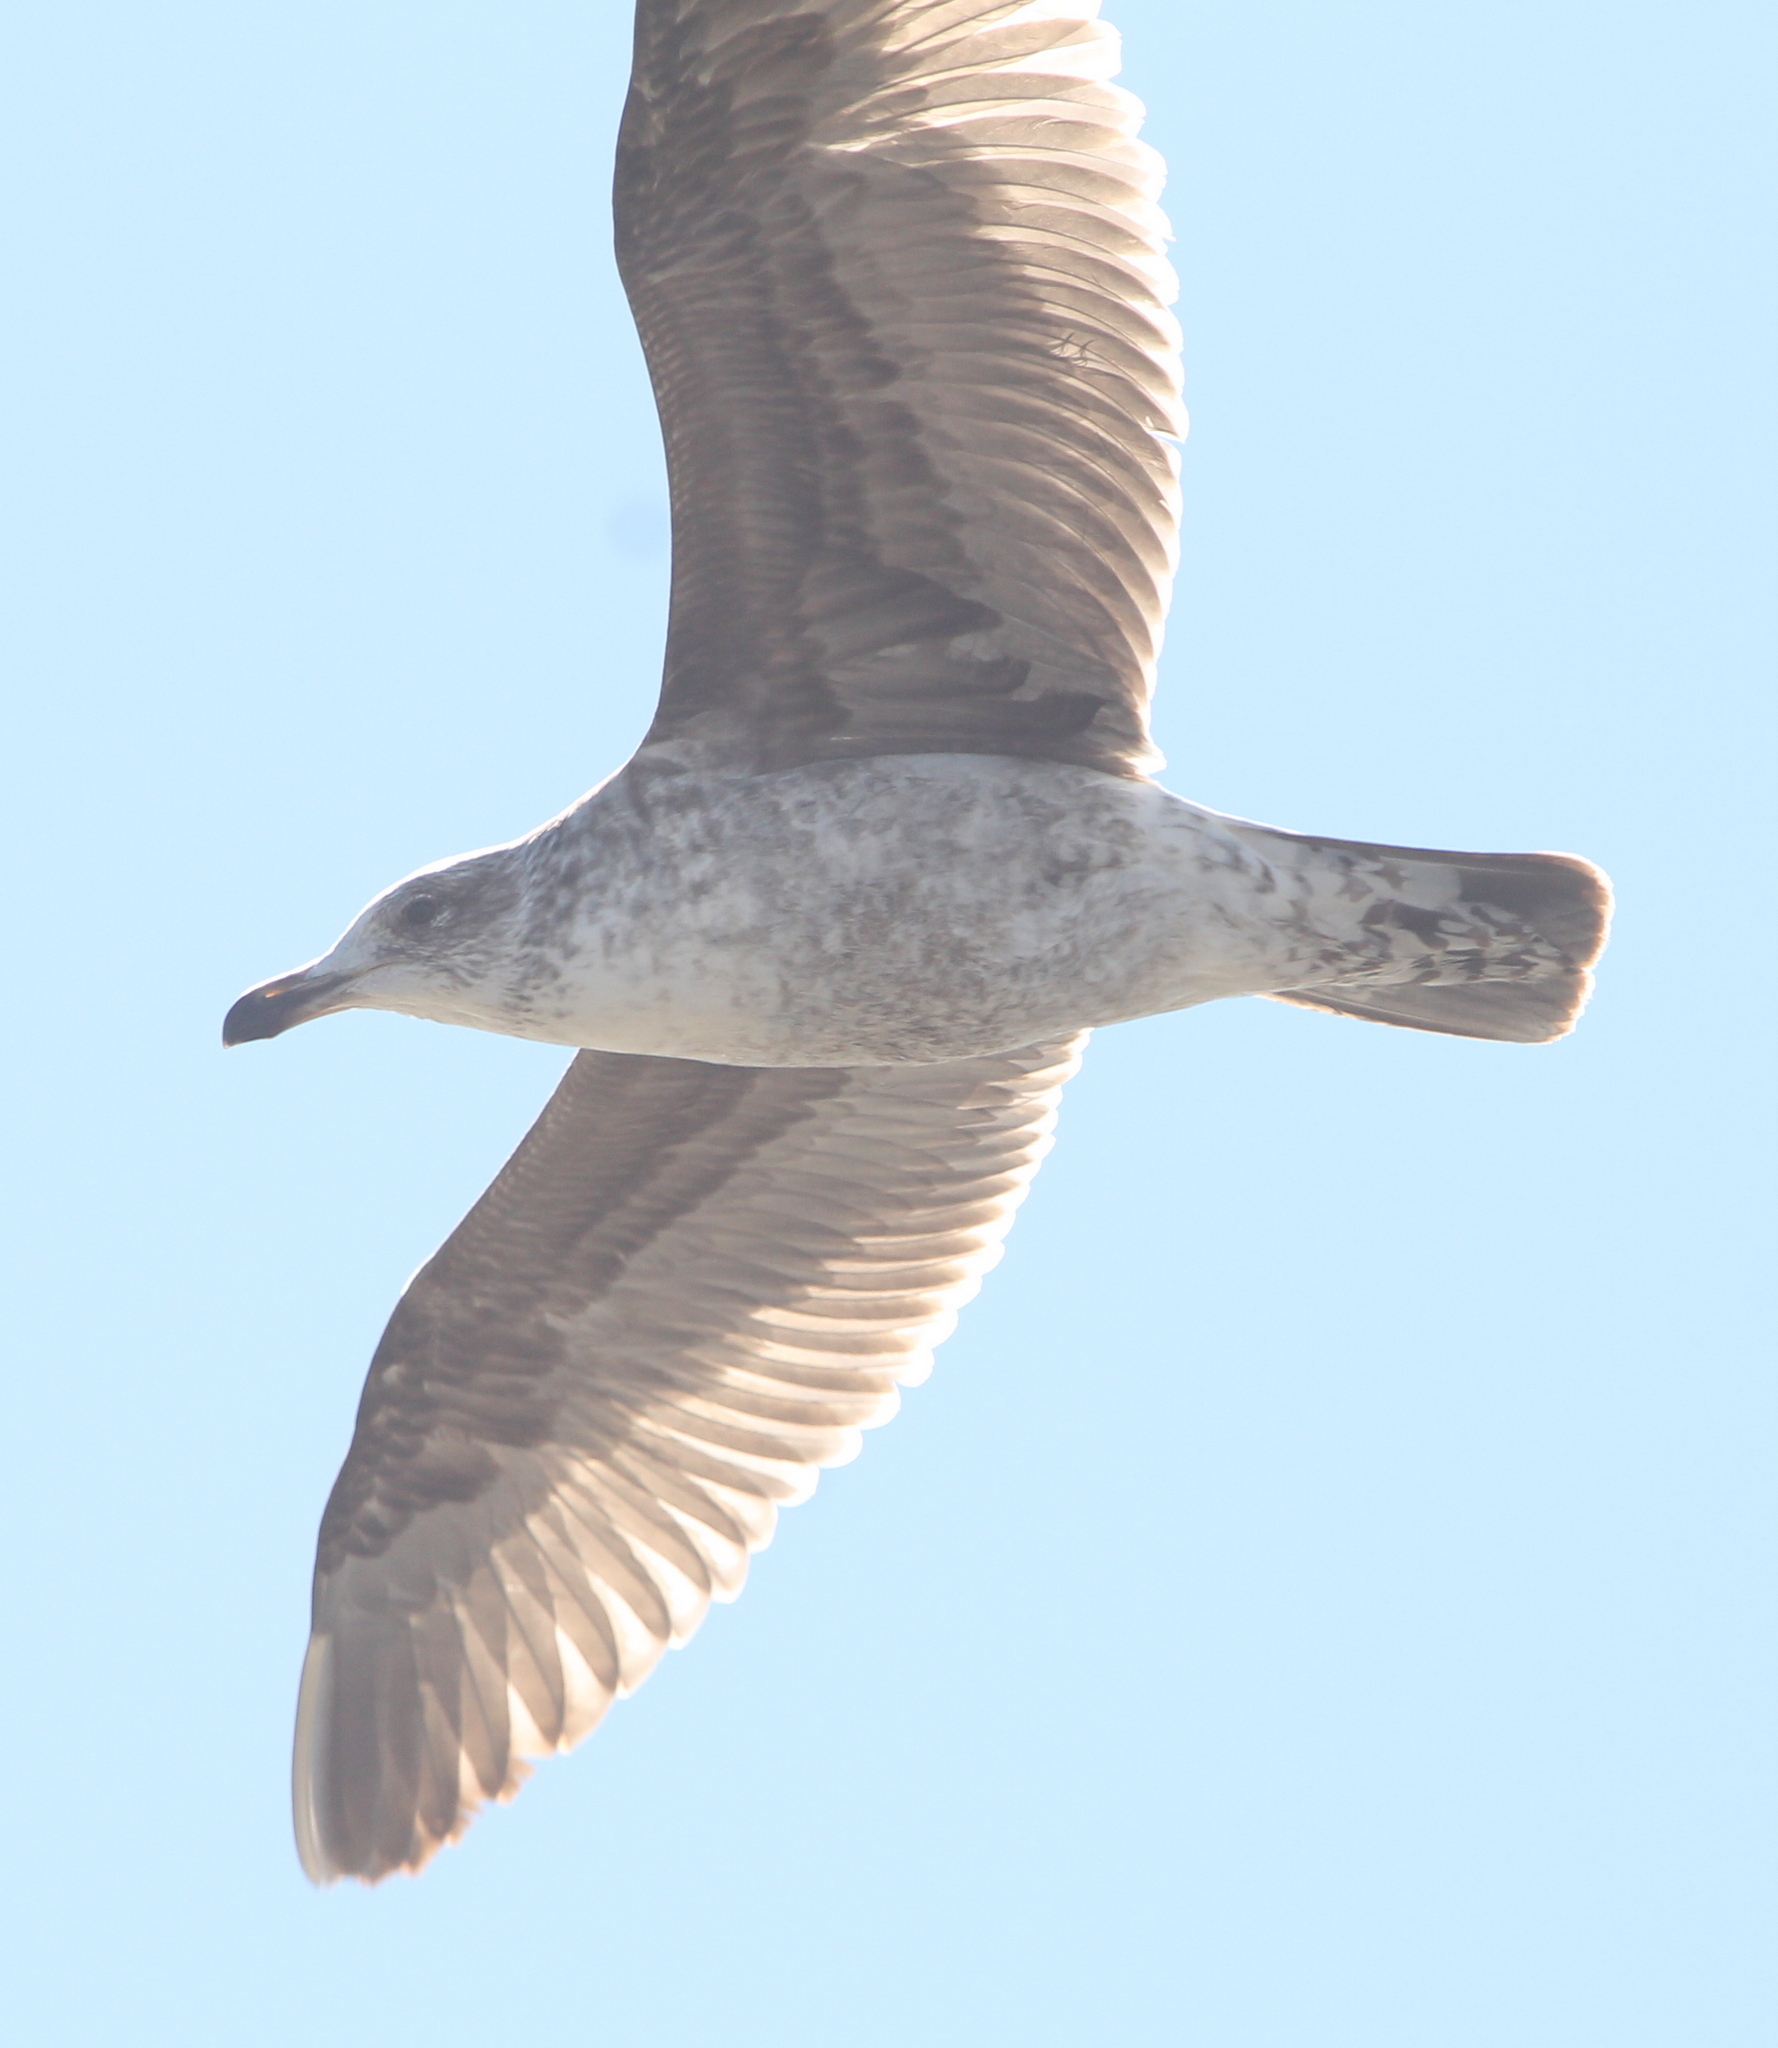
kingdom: Animalia
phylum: Chordata
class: Aves
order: Charadriiformes
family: Laridae
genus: Larus
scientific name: Larus dominicanus
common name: Kelp gull
